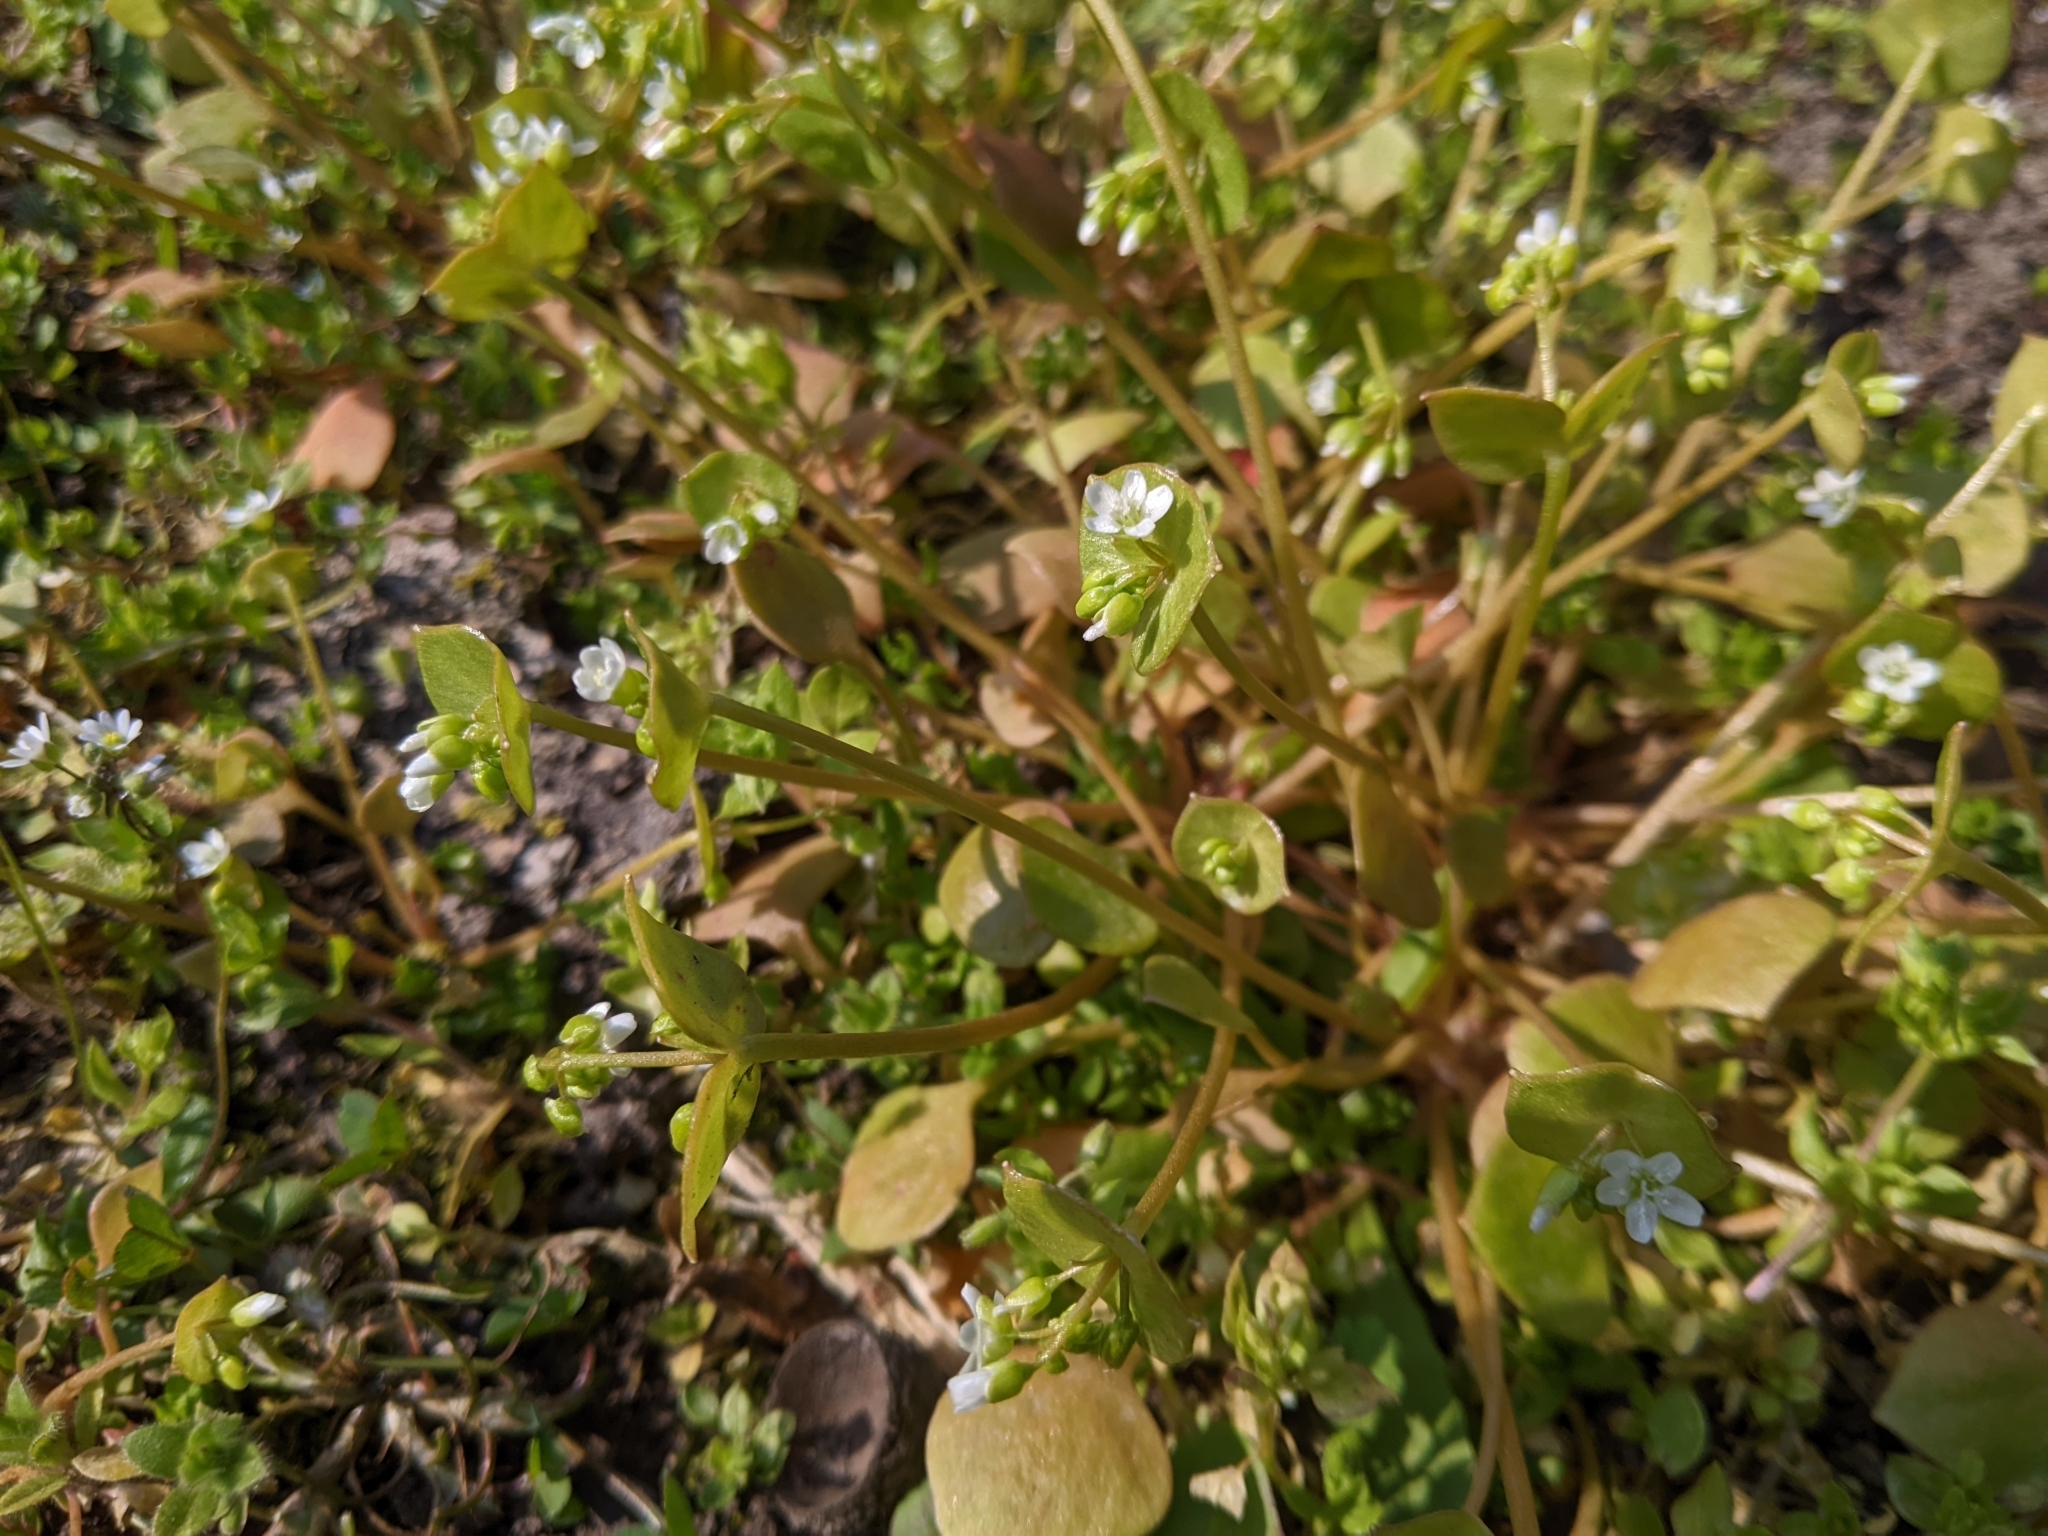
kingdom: Plantae
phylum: Tracheophyta
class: Magnoliopsida
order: Caryophyllales
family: Montiaceae
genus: Claytonia
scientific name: Claytonia perfoliata
